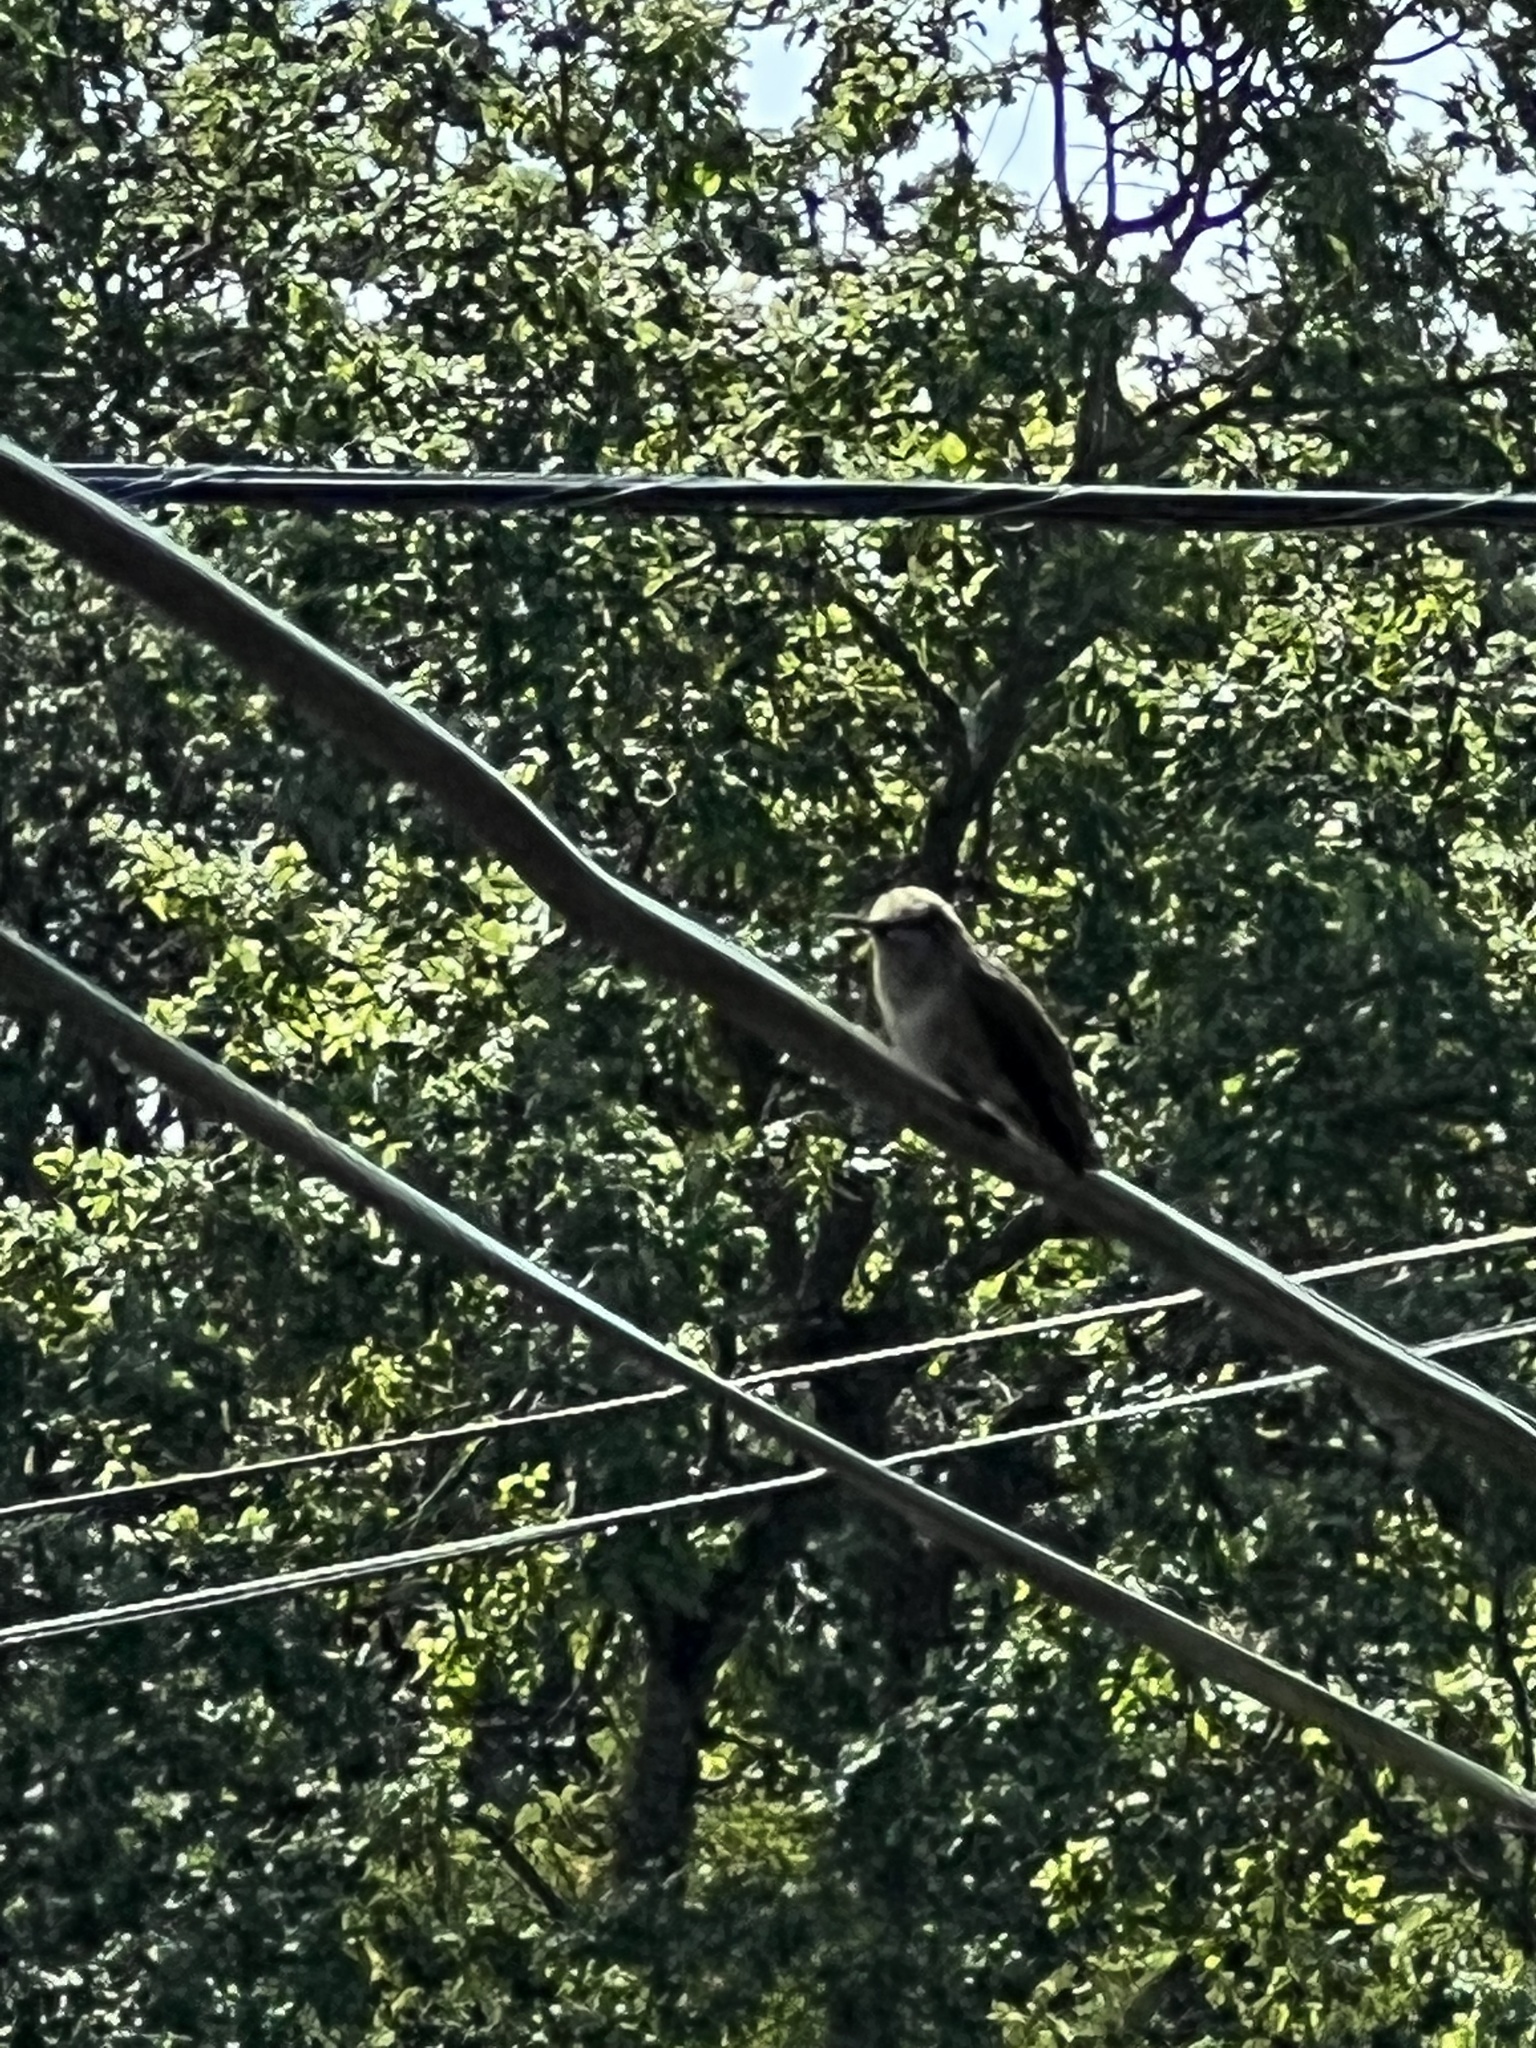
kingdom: Animalia
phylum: Chordata
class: Aves
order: Apodiformes
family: Trochilidae
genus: Calypte
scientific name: Calypte anna
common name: Anna's hummingbird
